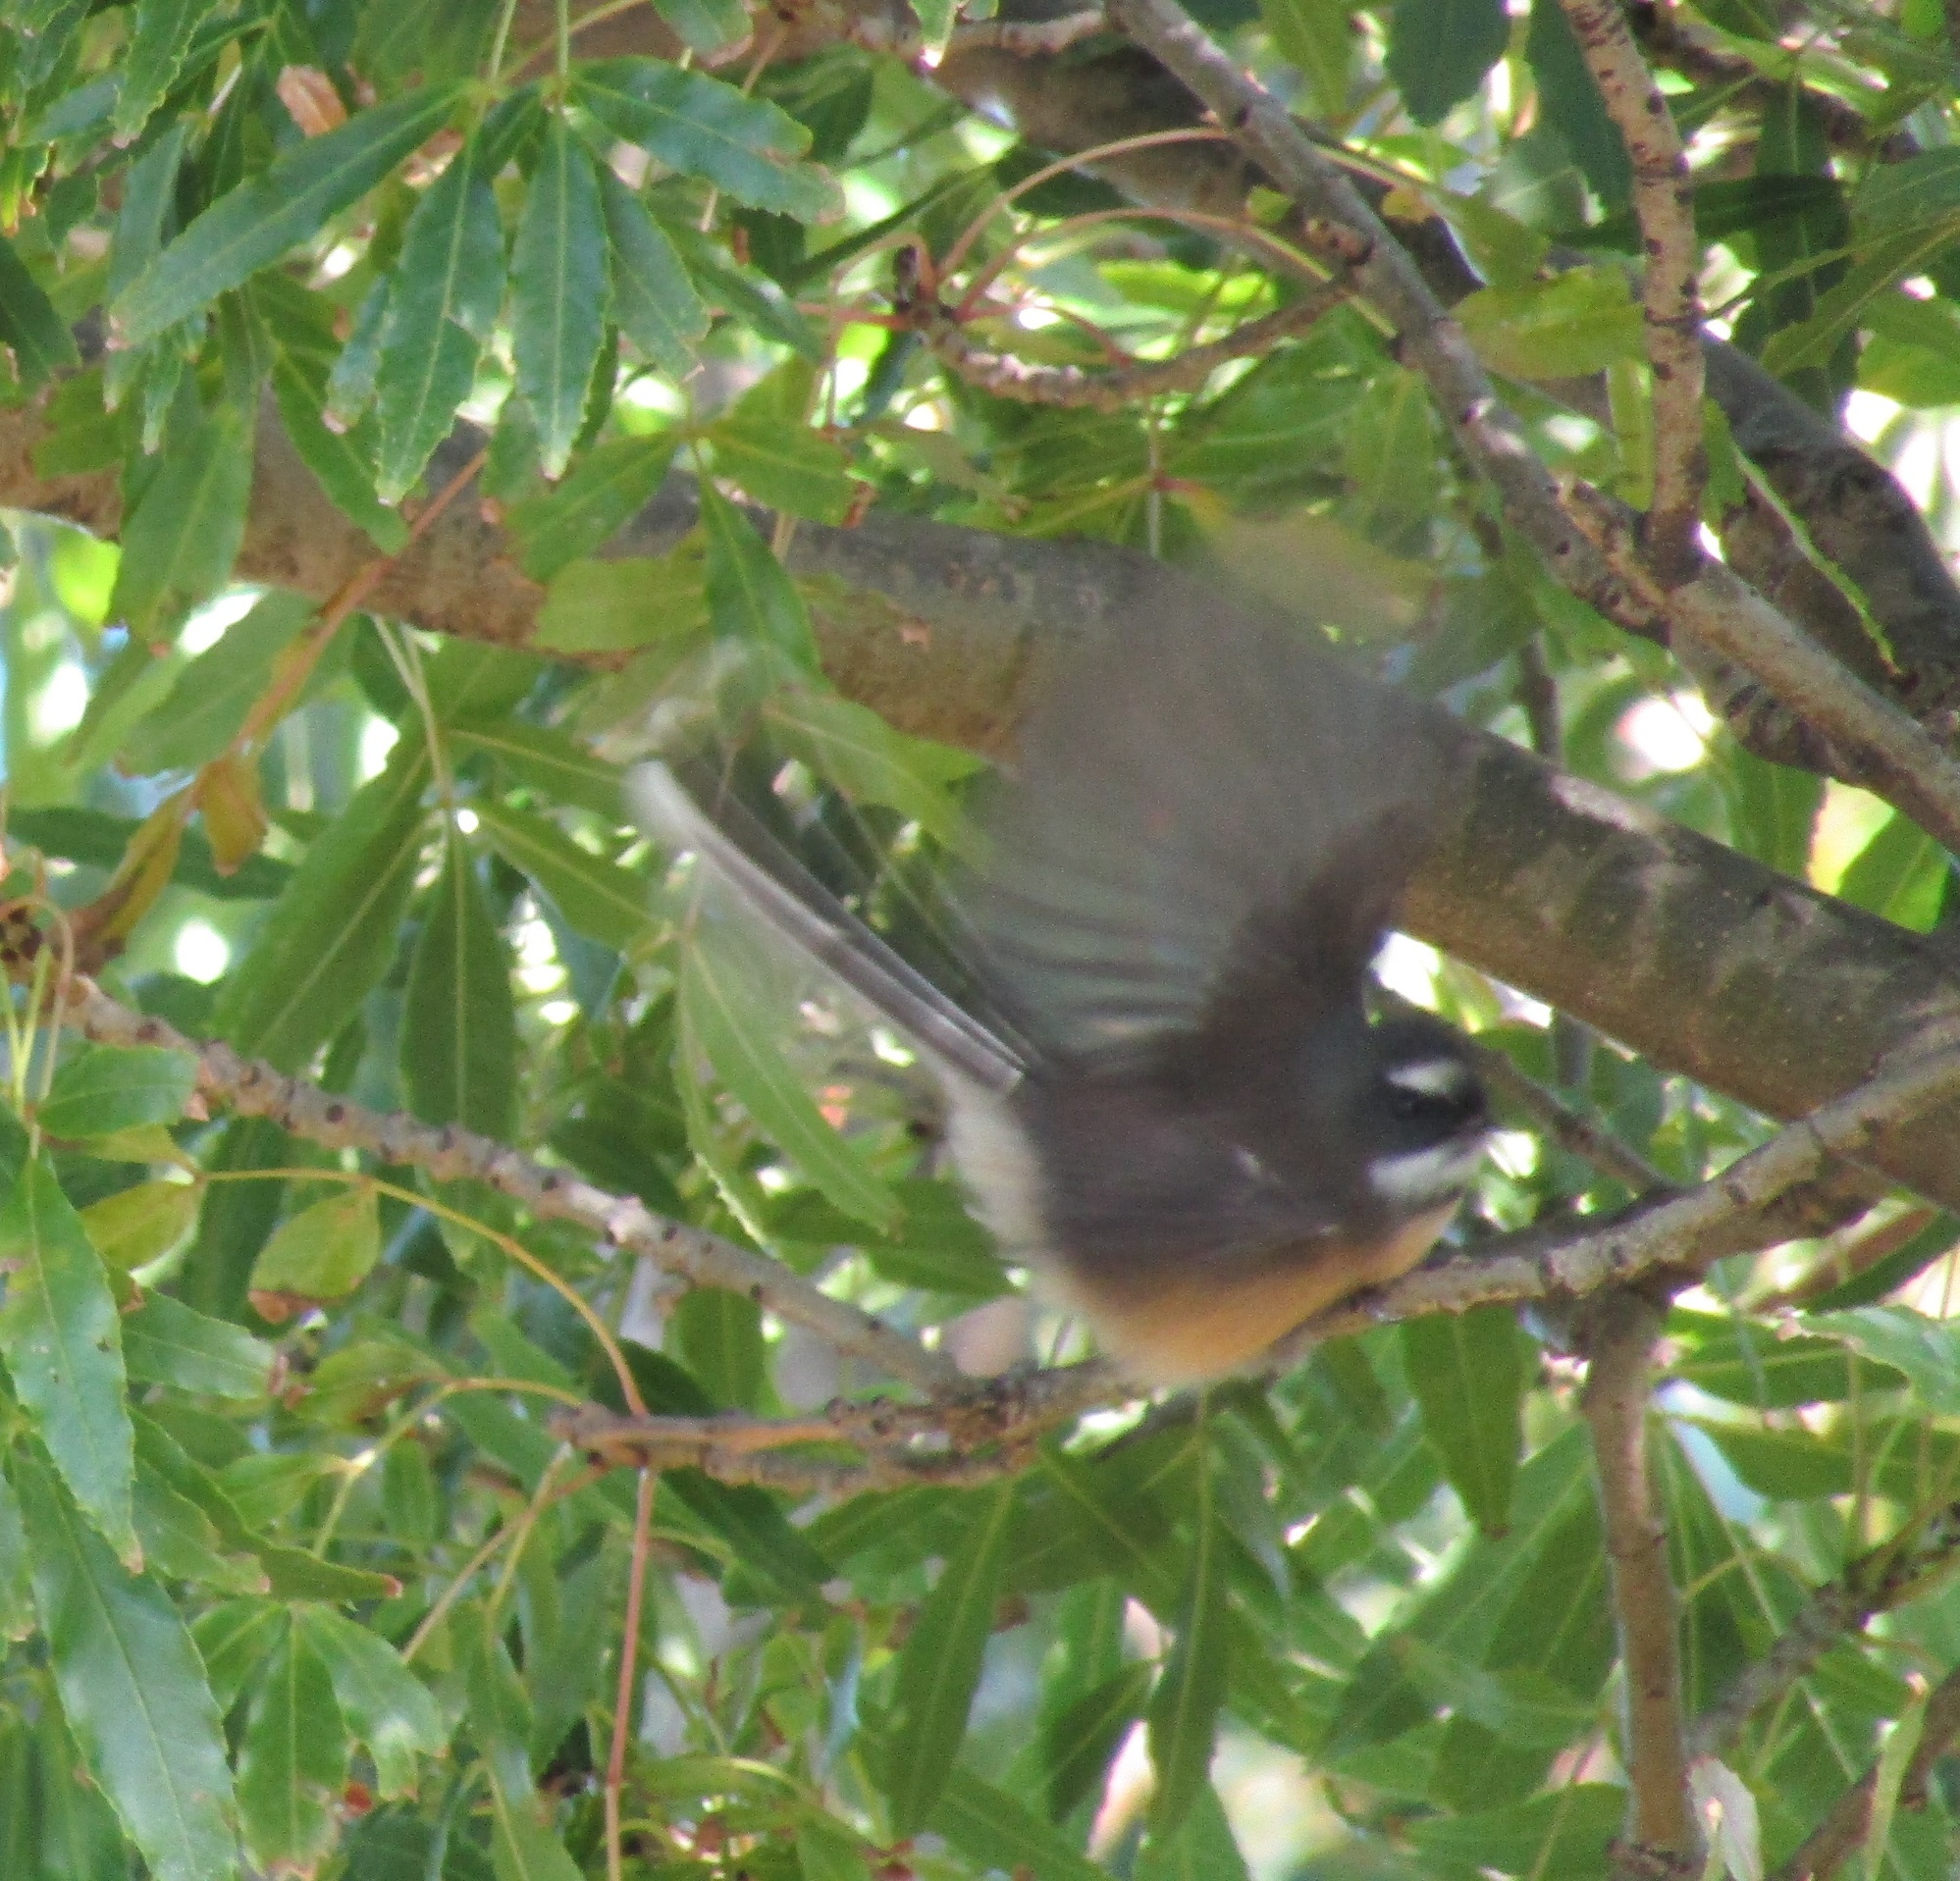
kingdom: Animalia
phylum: Chordata
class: Aves
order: Passeriformes
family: Rhipiduridae
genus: Rhipidura
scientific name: Rhipidura fuliginosa
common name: New zealand fantail
